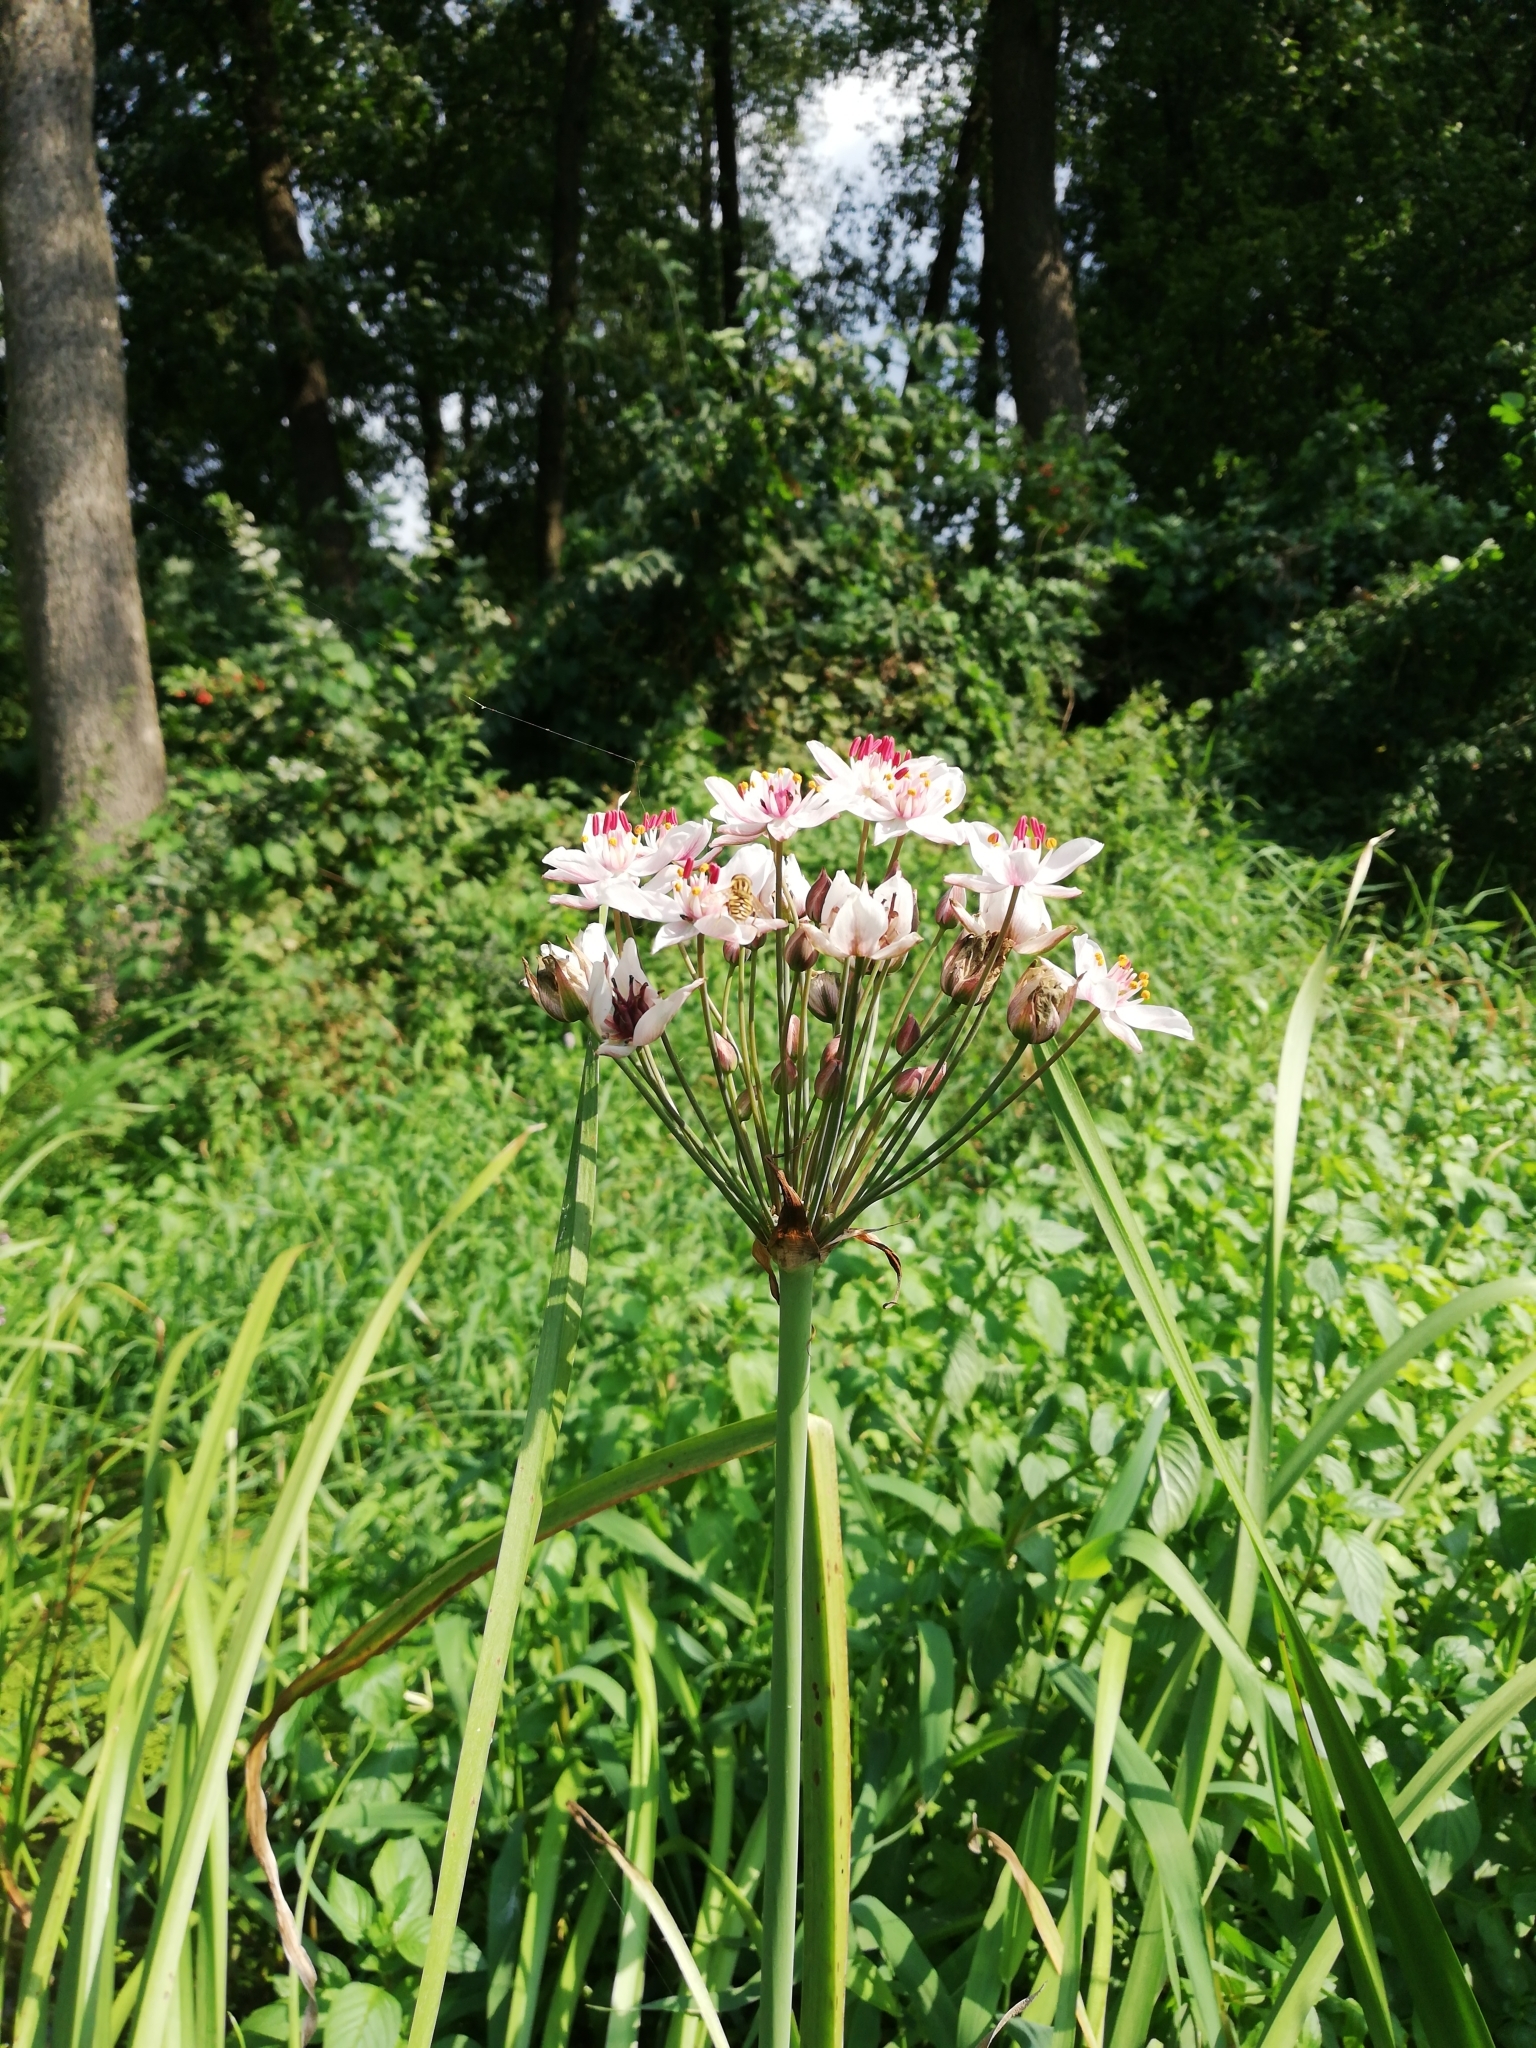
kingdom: Plantae
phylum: Tracheophyta
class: Liliopsida
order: Alismatales
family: Butomaceae
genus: Butomus
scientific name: Butomus umbellatus
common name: Flowering-rush
